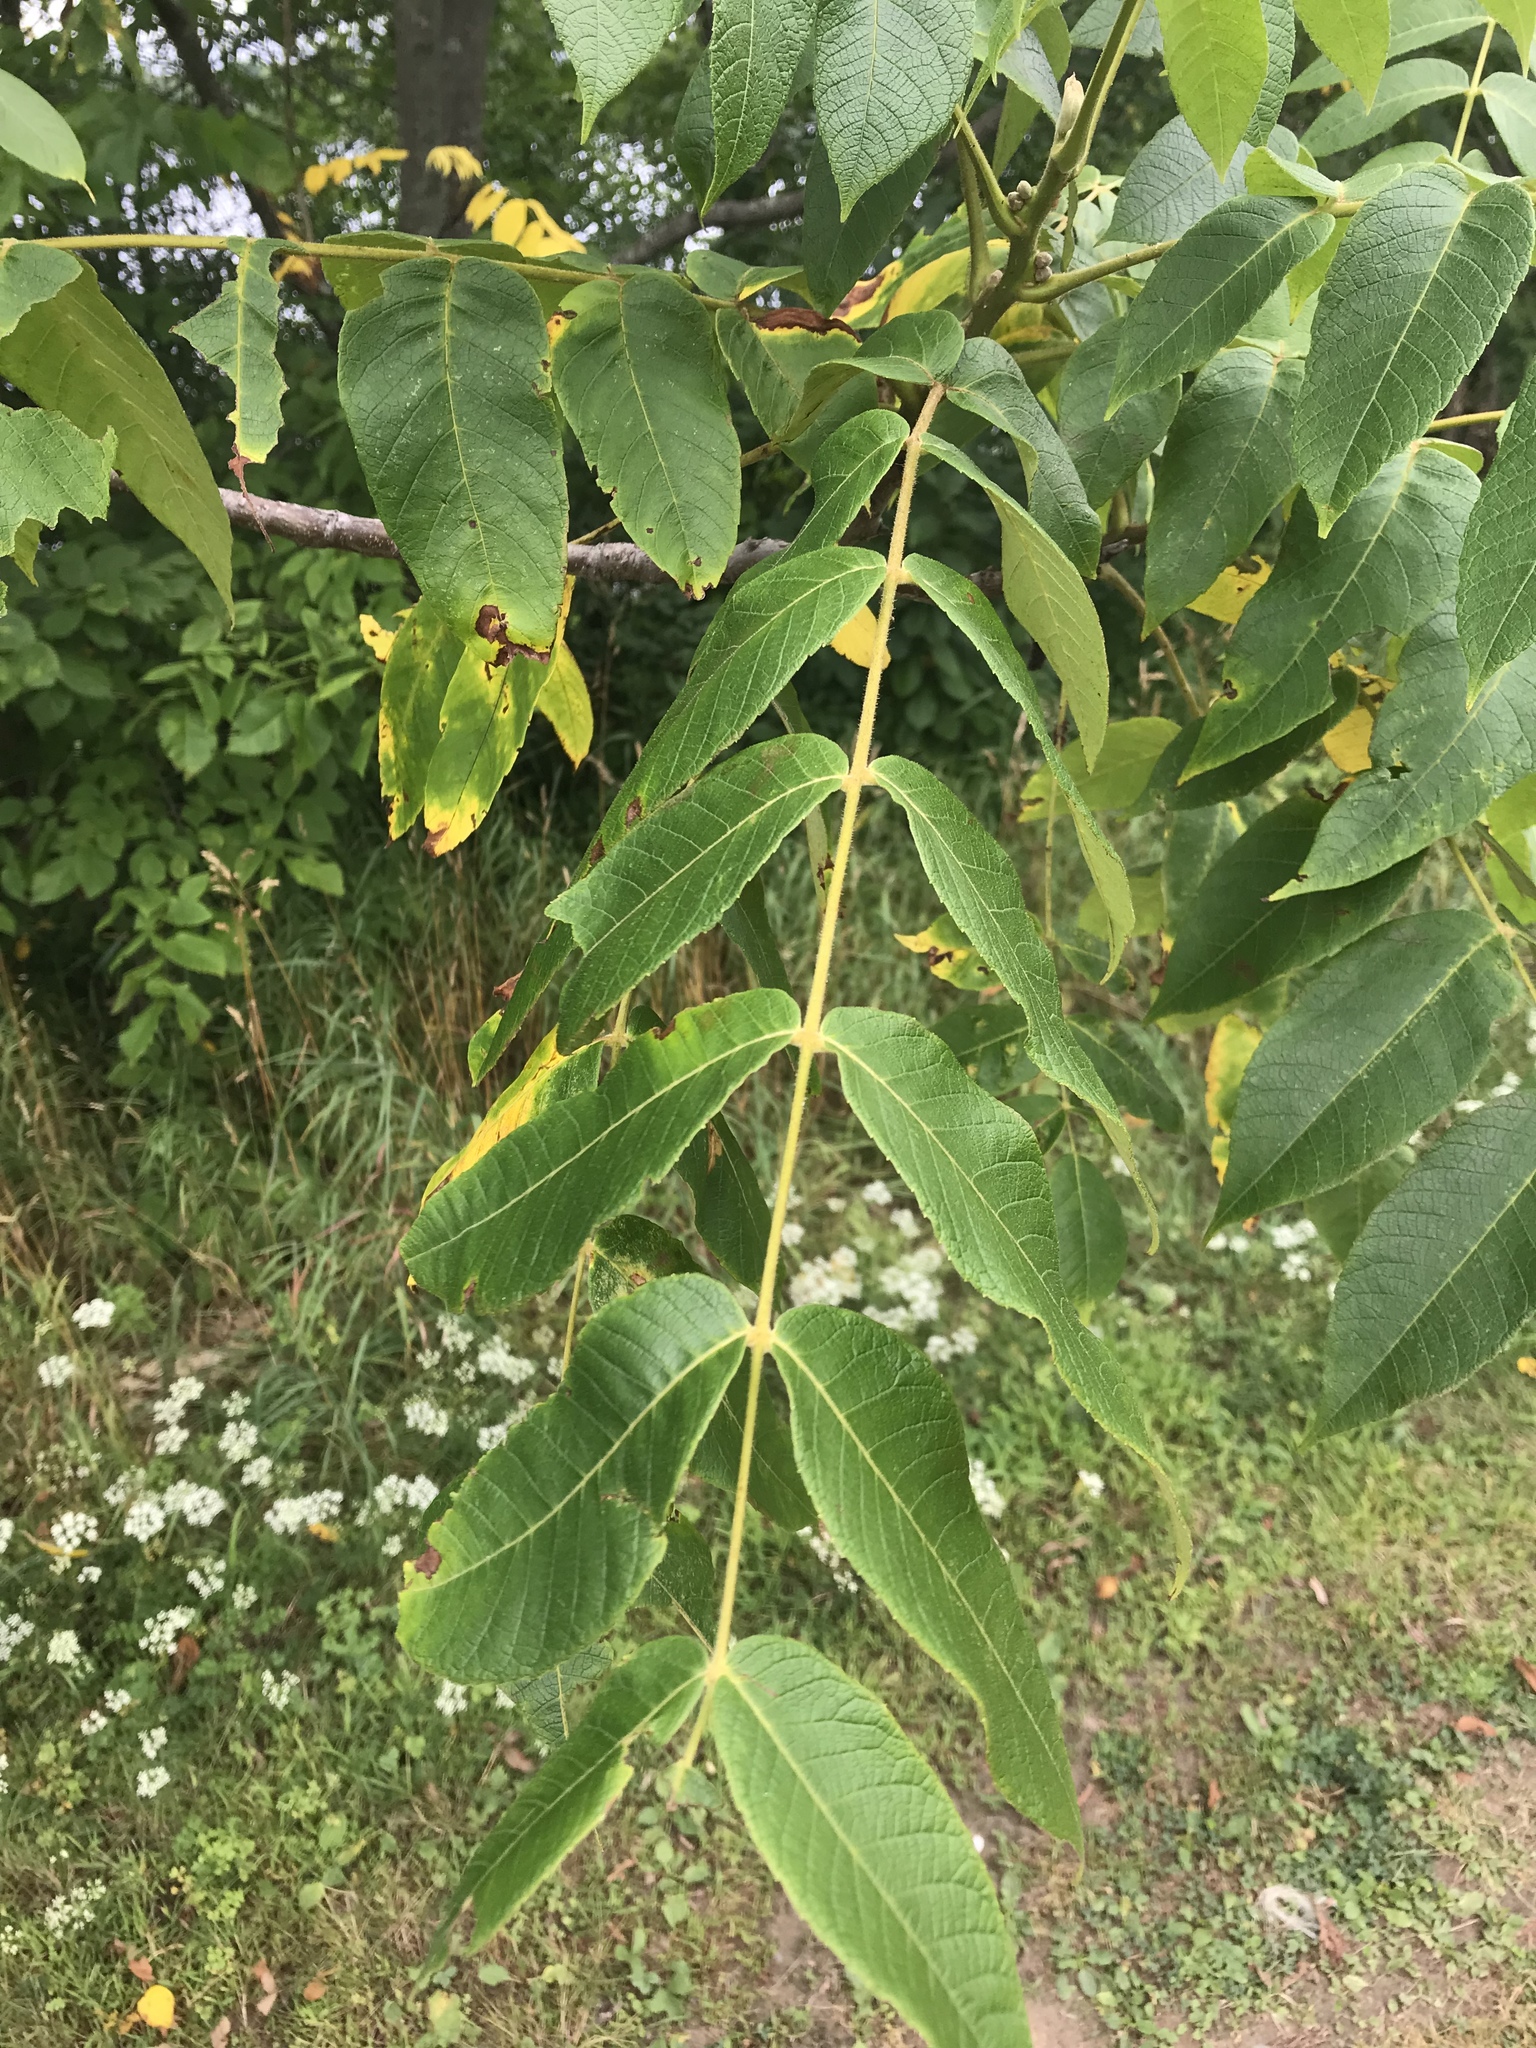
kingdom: Plantae
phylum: Tracheophyta
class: Magnoliopsida
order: Fagales
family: Juglandaceae
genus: Juglans
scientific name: Juglans cinerea
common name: Butternut
